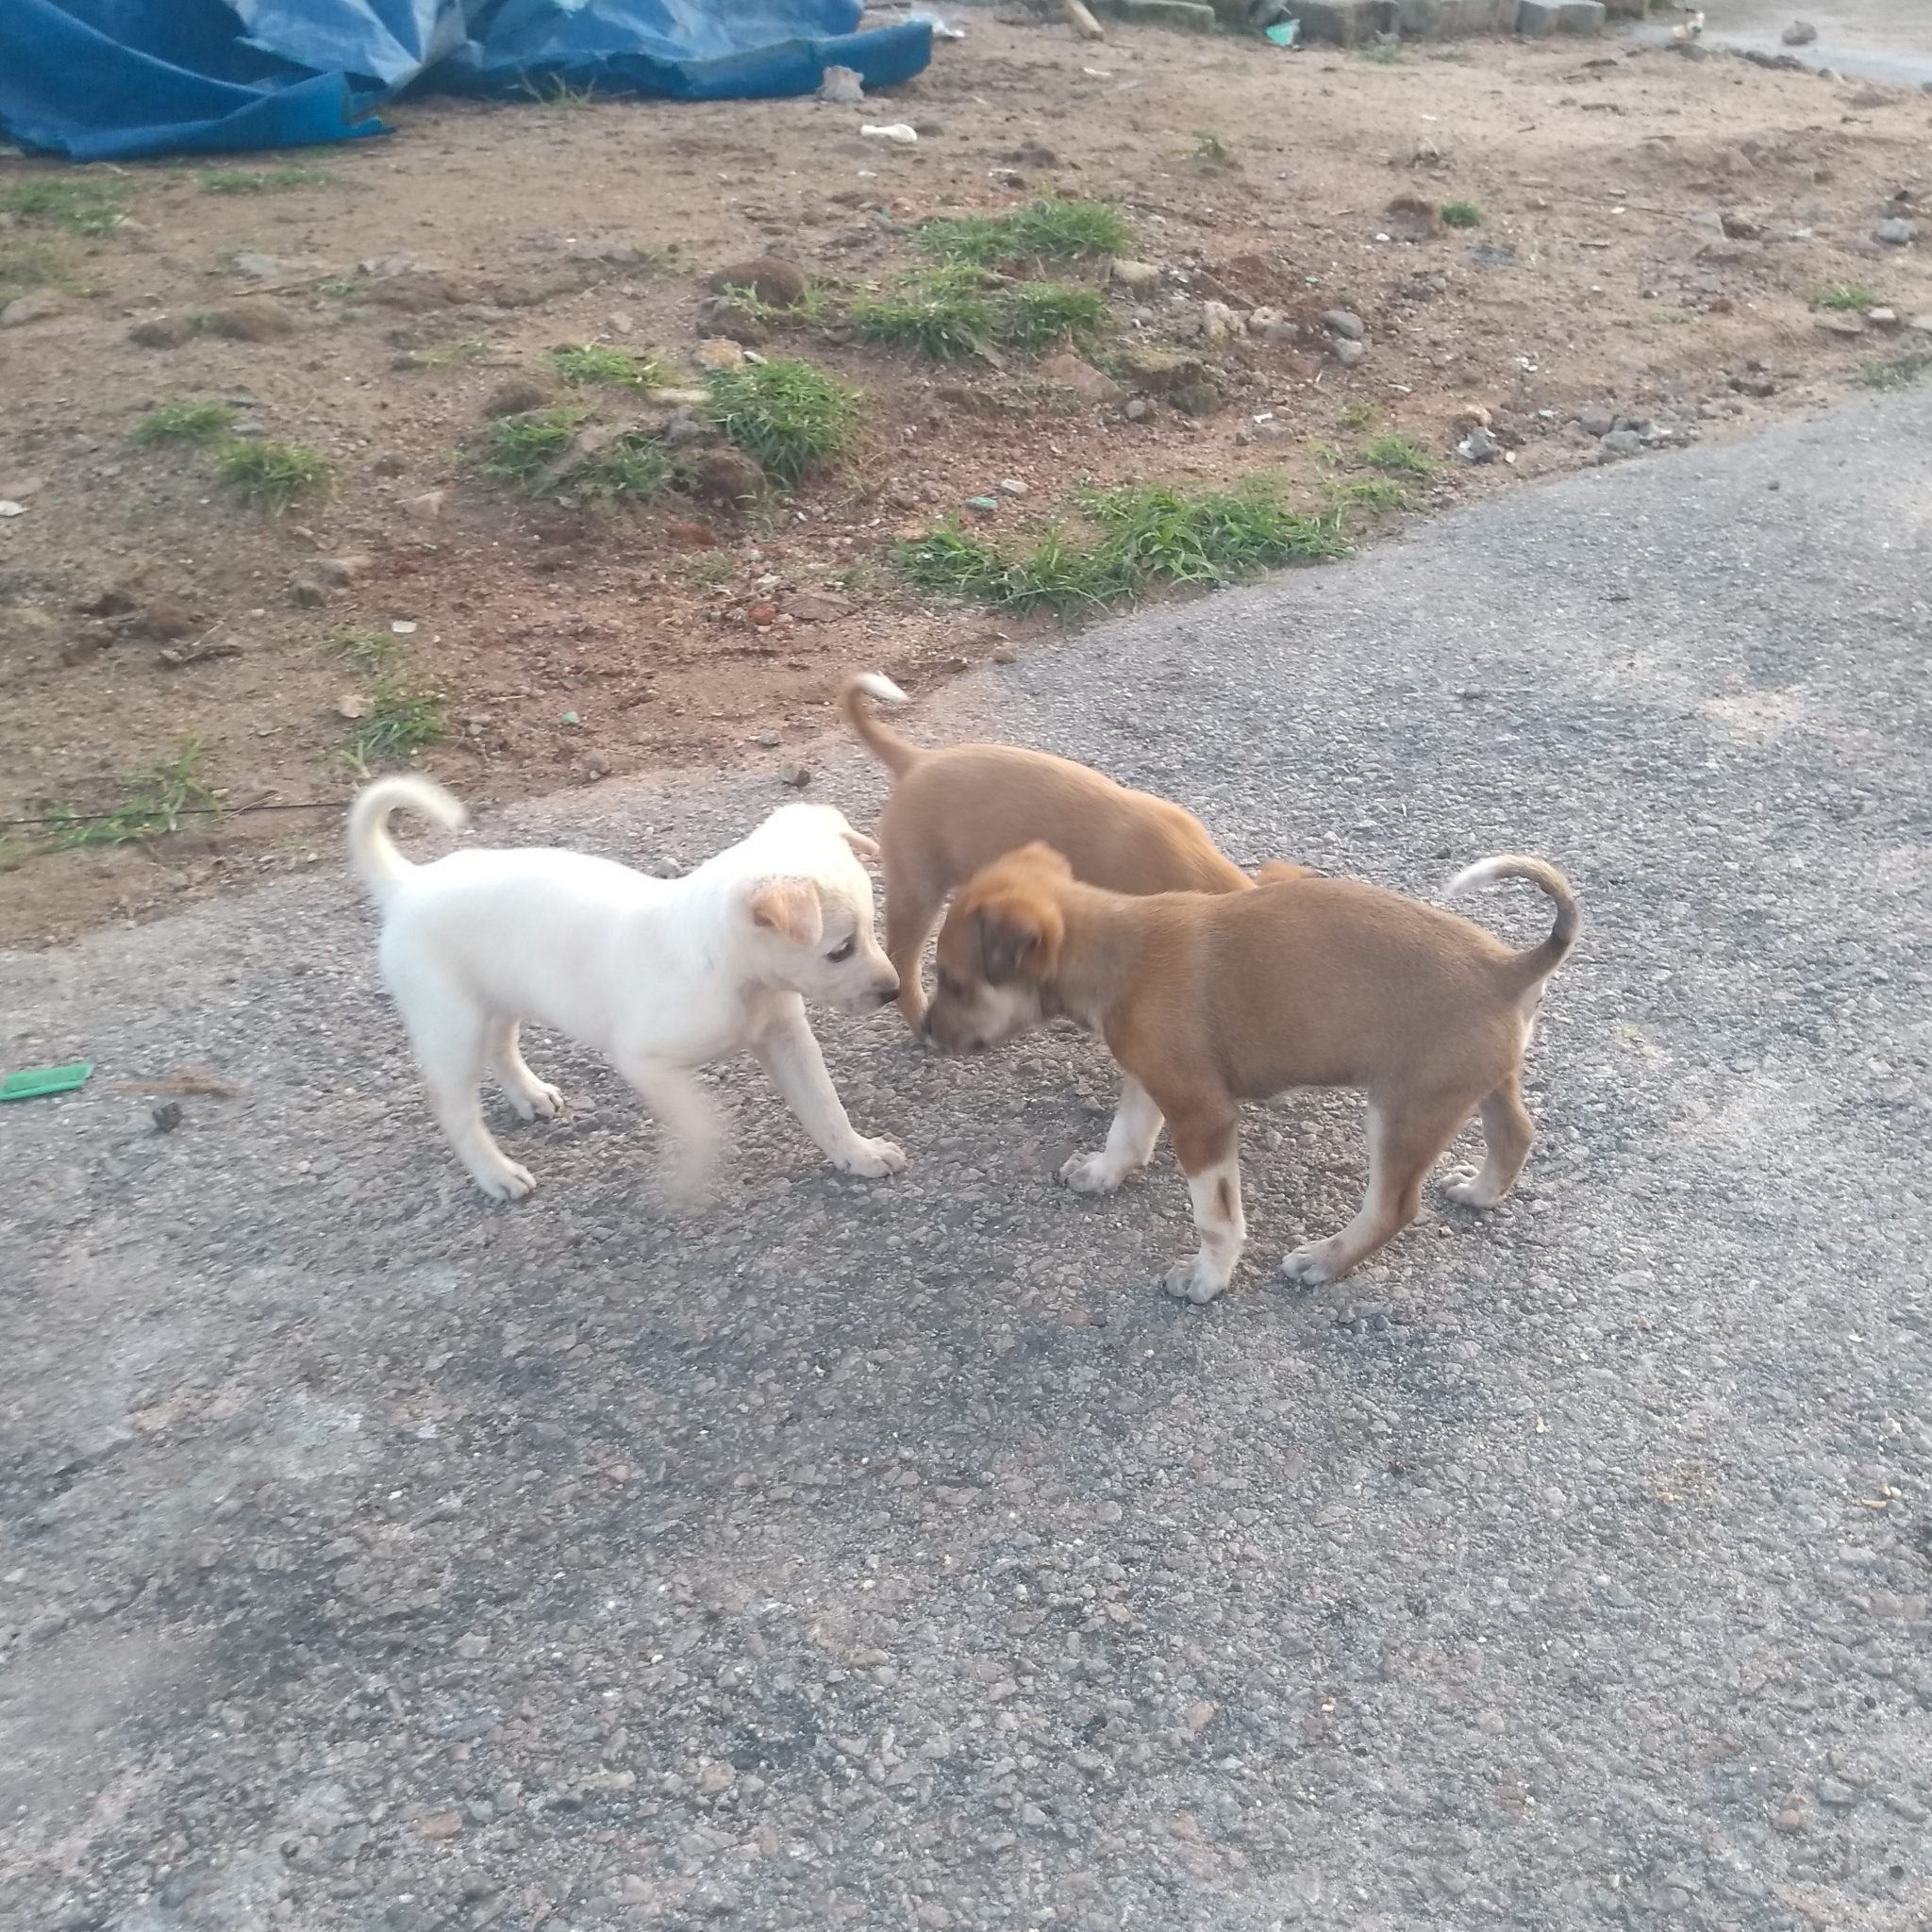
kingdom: Animalia
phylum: Chordata
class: Mammalia
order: Carnivora
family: Canidae
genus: Canis
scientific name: Canis lupus
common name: Gray wolf
